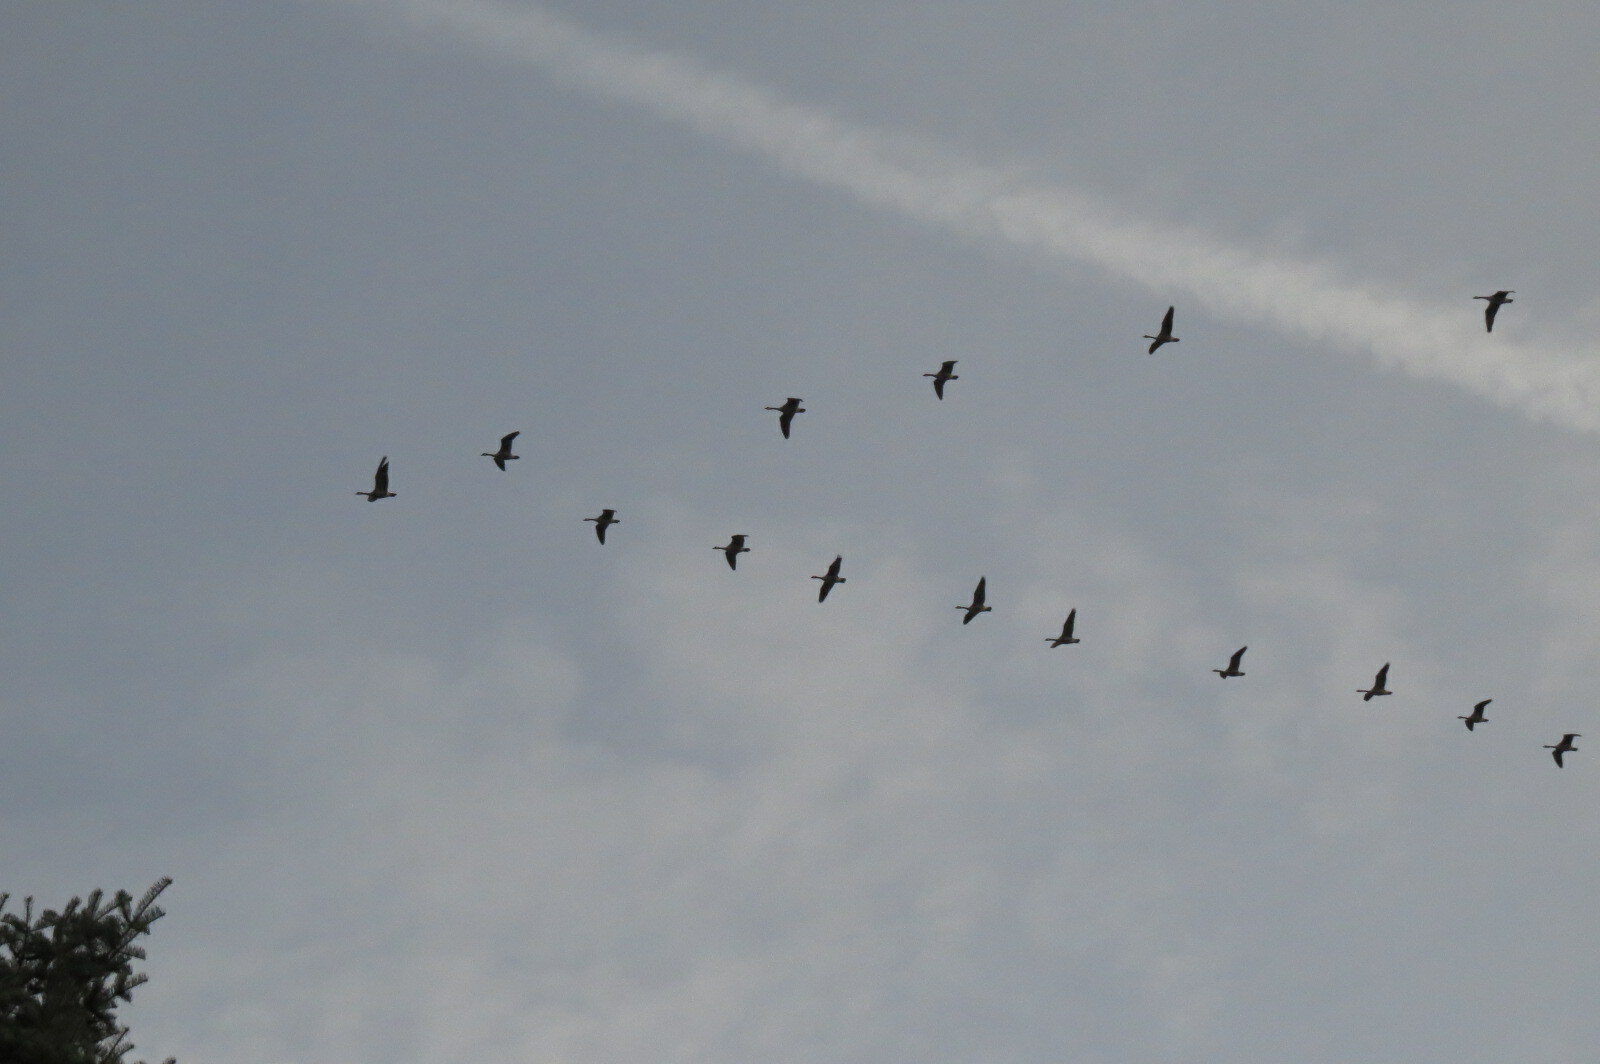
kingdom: Animalia
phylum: Chordata
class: Aves
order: Anseriformes
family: Anatidae
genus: Branta
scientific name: Branta canadensis
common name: Canada goose
